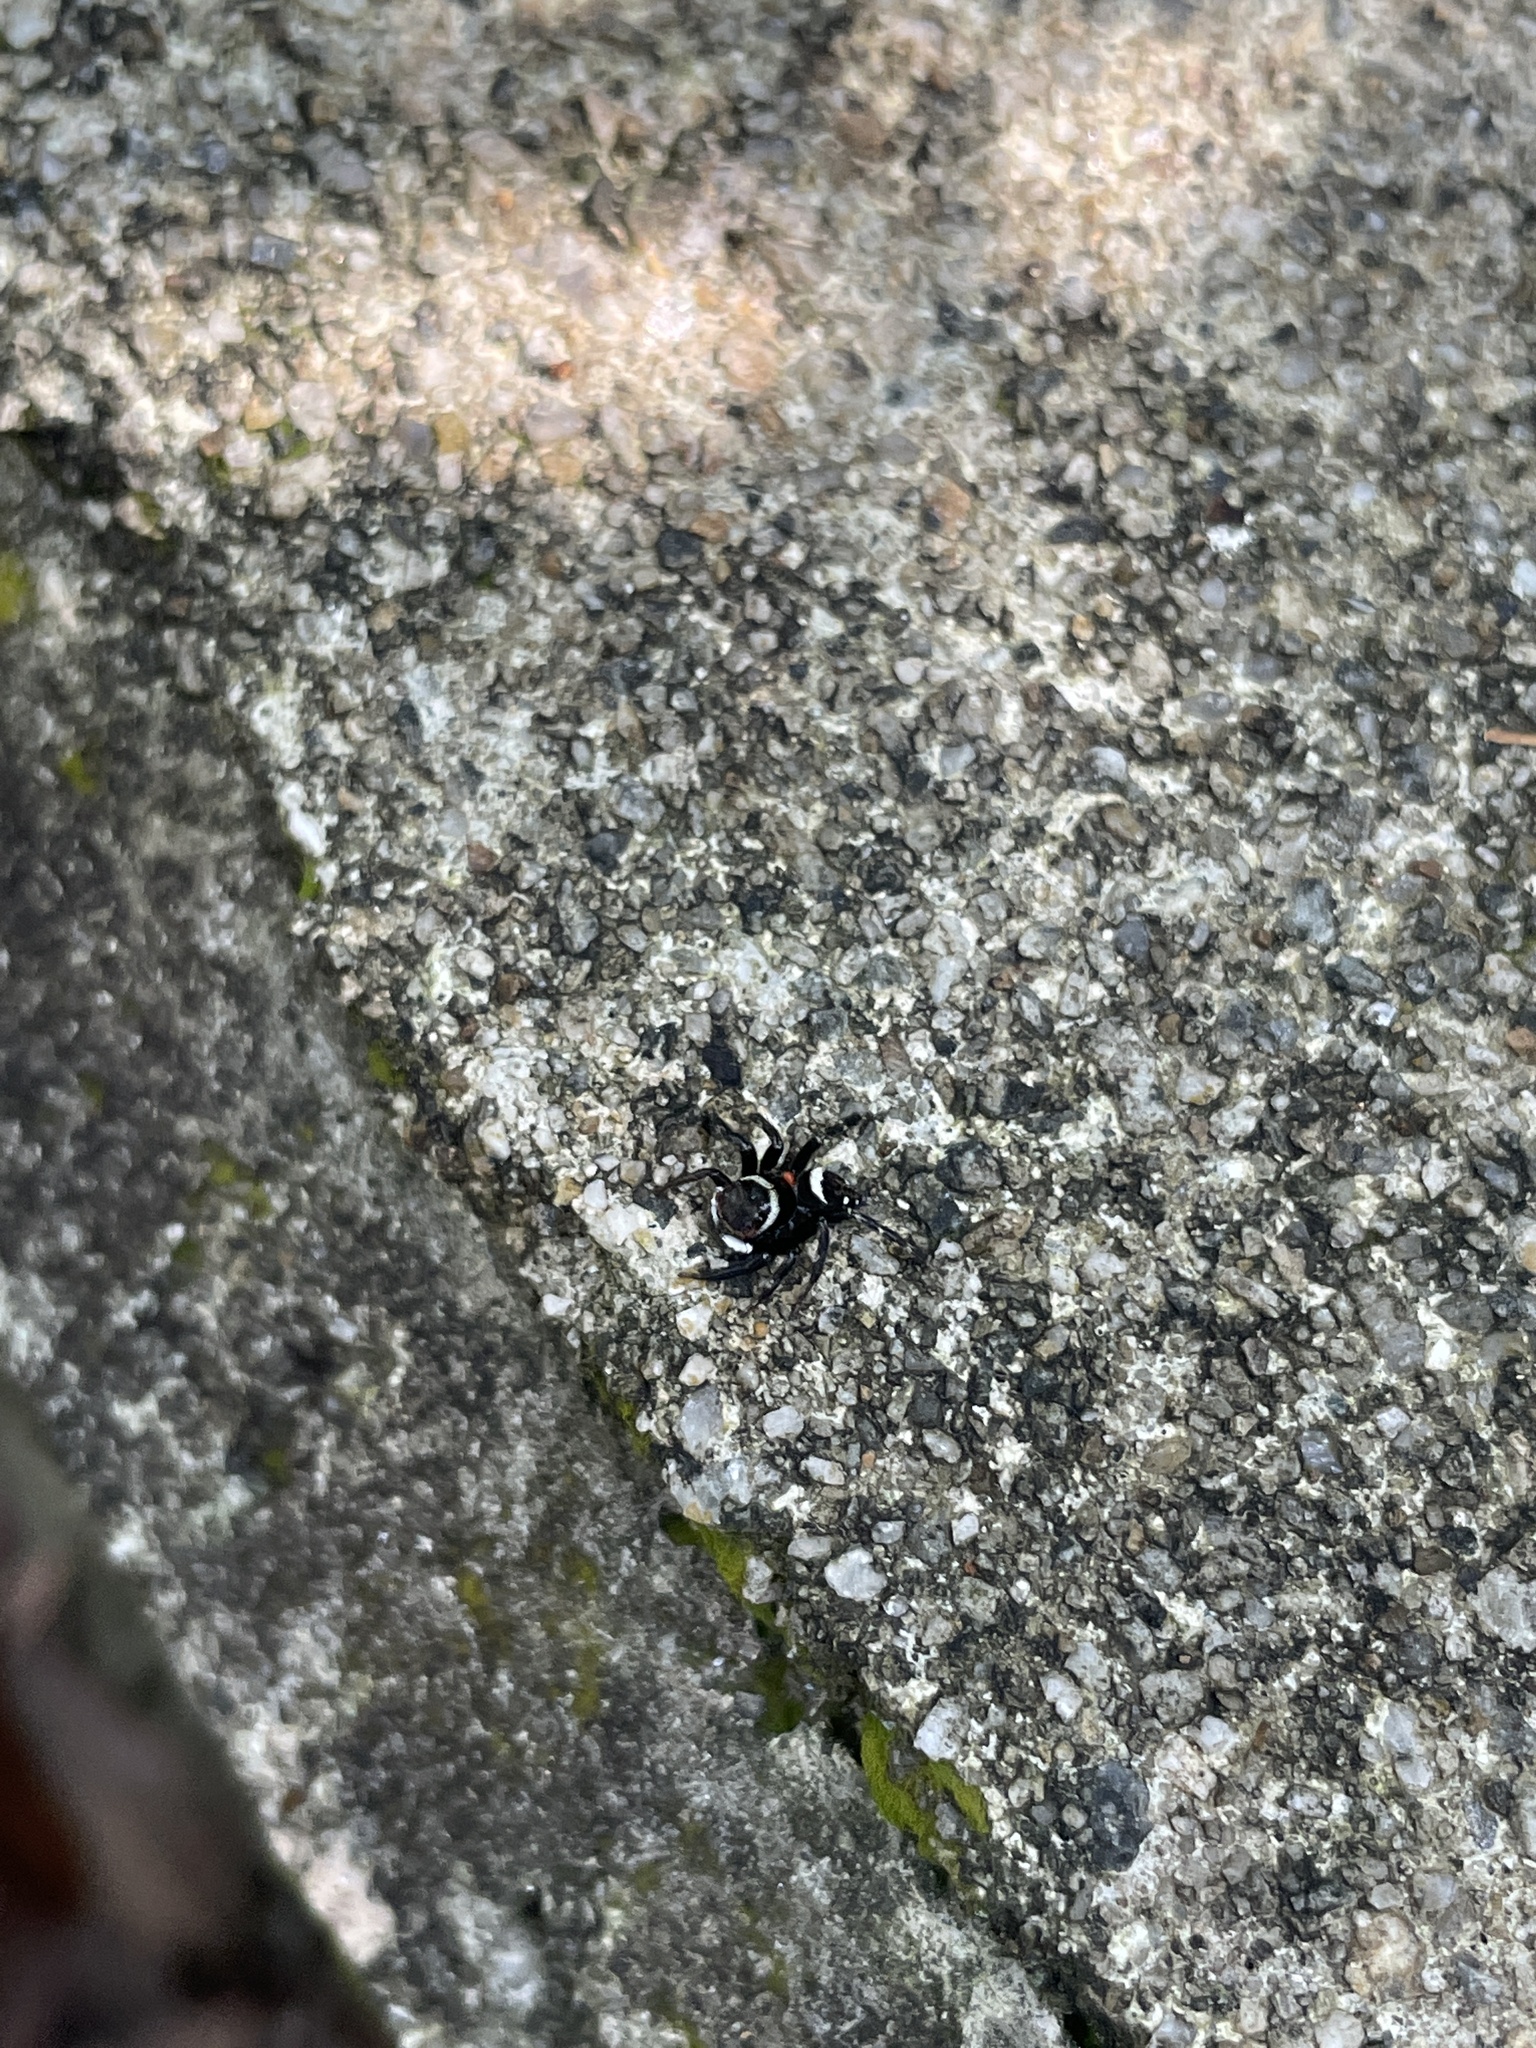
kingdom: Animalia
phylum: Arthropoda
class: Arachnida
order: Araneae
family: Salticidae
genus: Hasarius
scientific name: Hasarius adansoni
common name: Jumping spider
